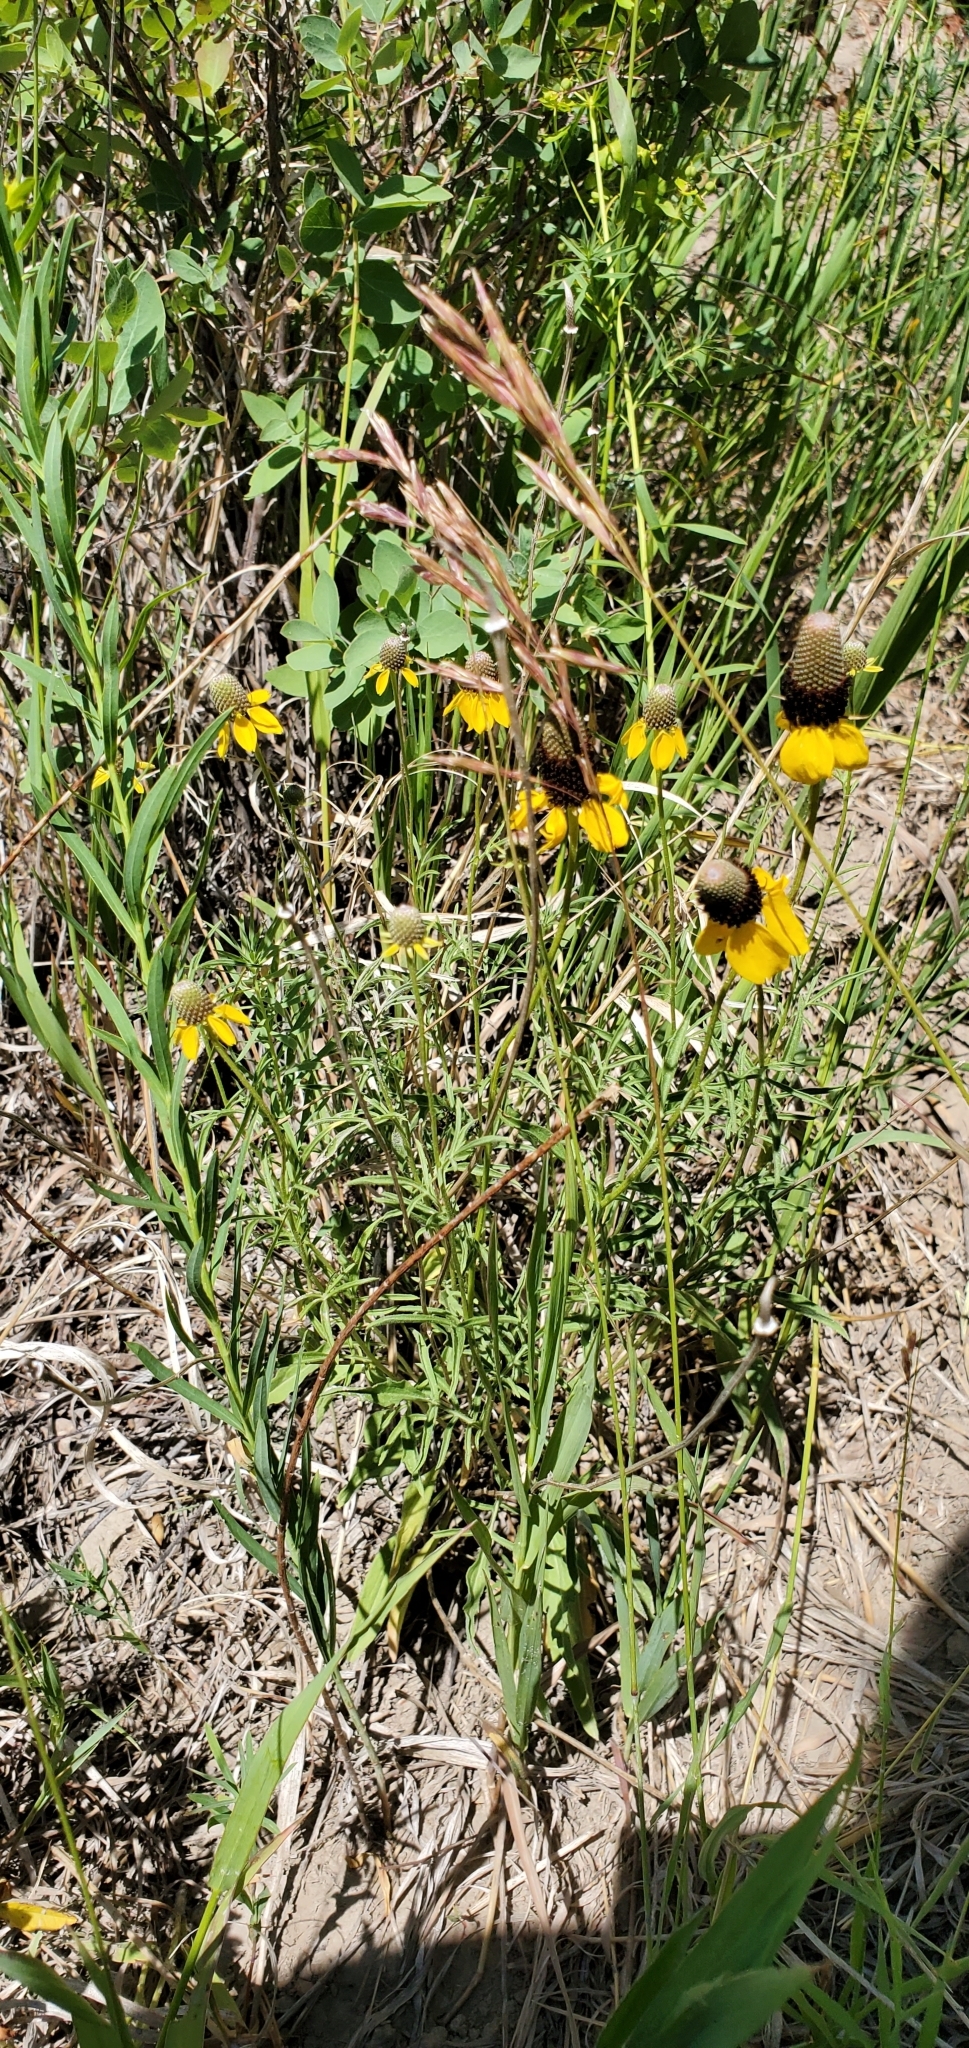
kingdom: Plantae
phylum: Tracheophyta
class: Magnoliopsida
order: Asterales
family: Asteraceae
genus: Ratibida
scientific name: Ratibida columnifera
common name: Prairie coneflower
